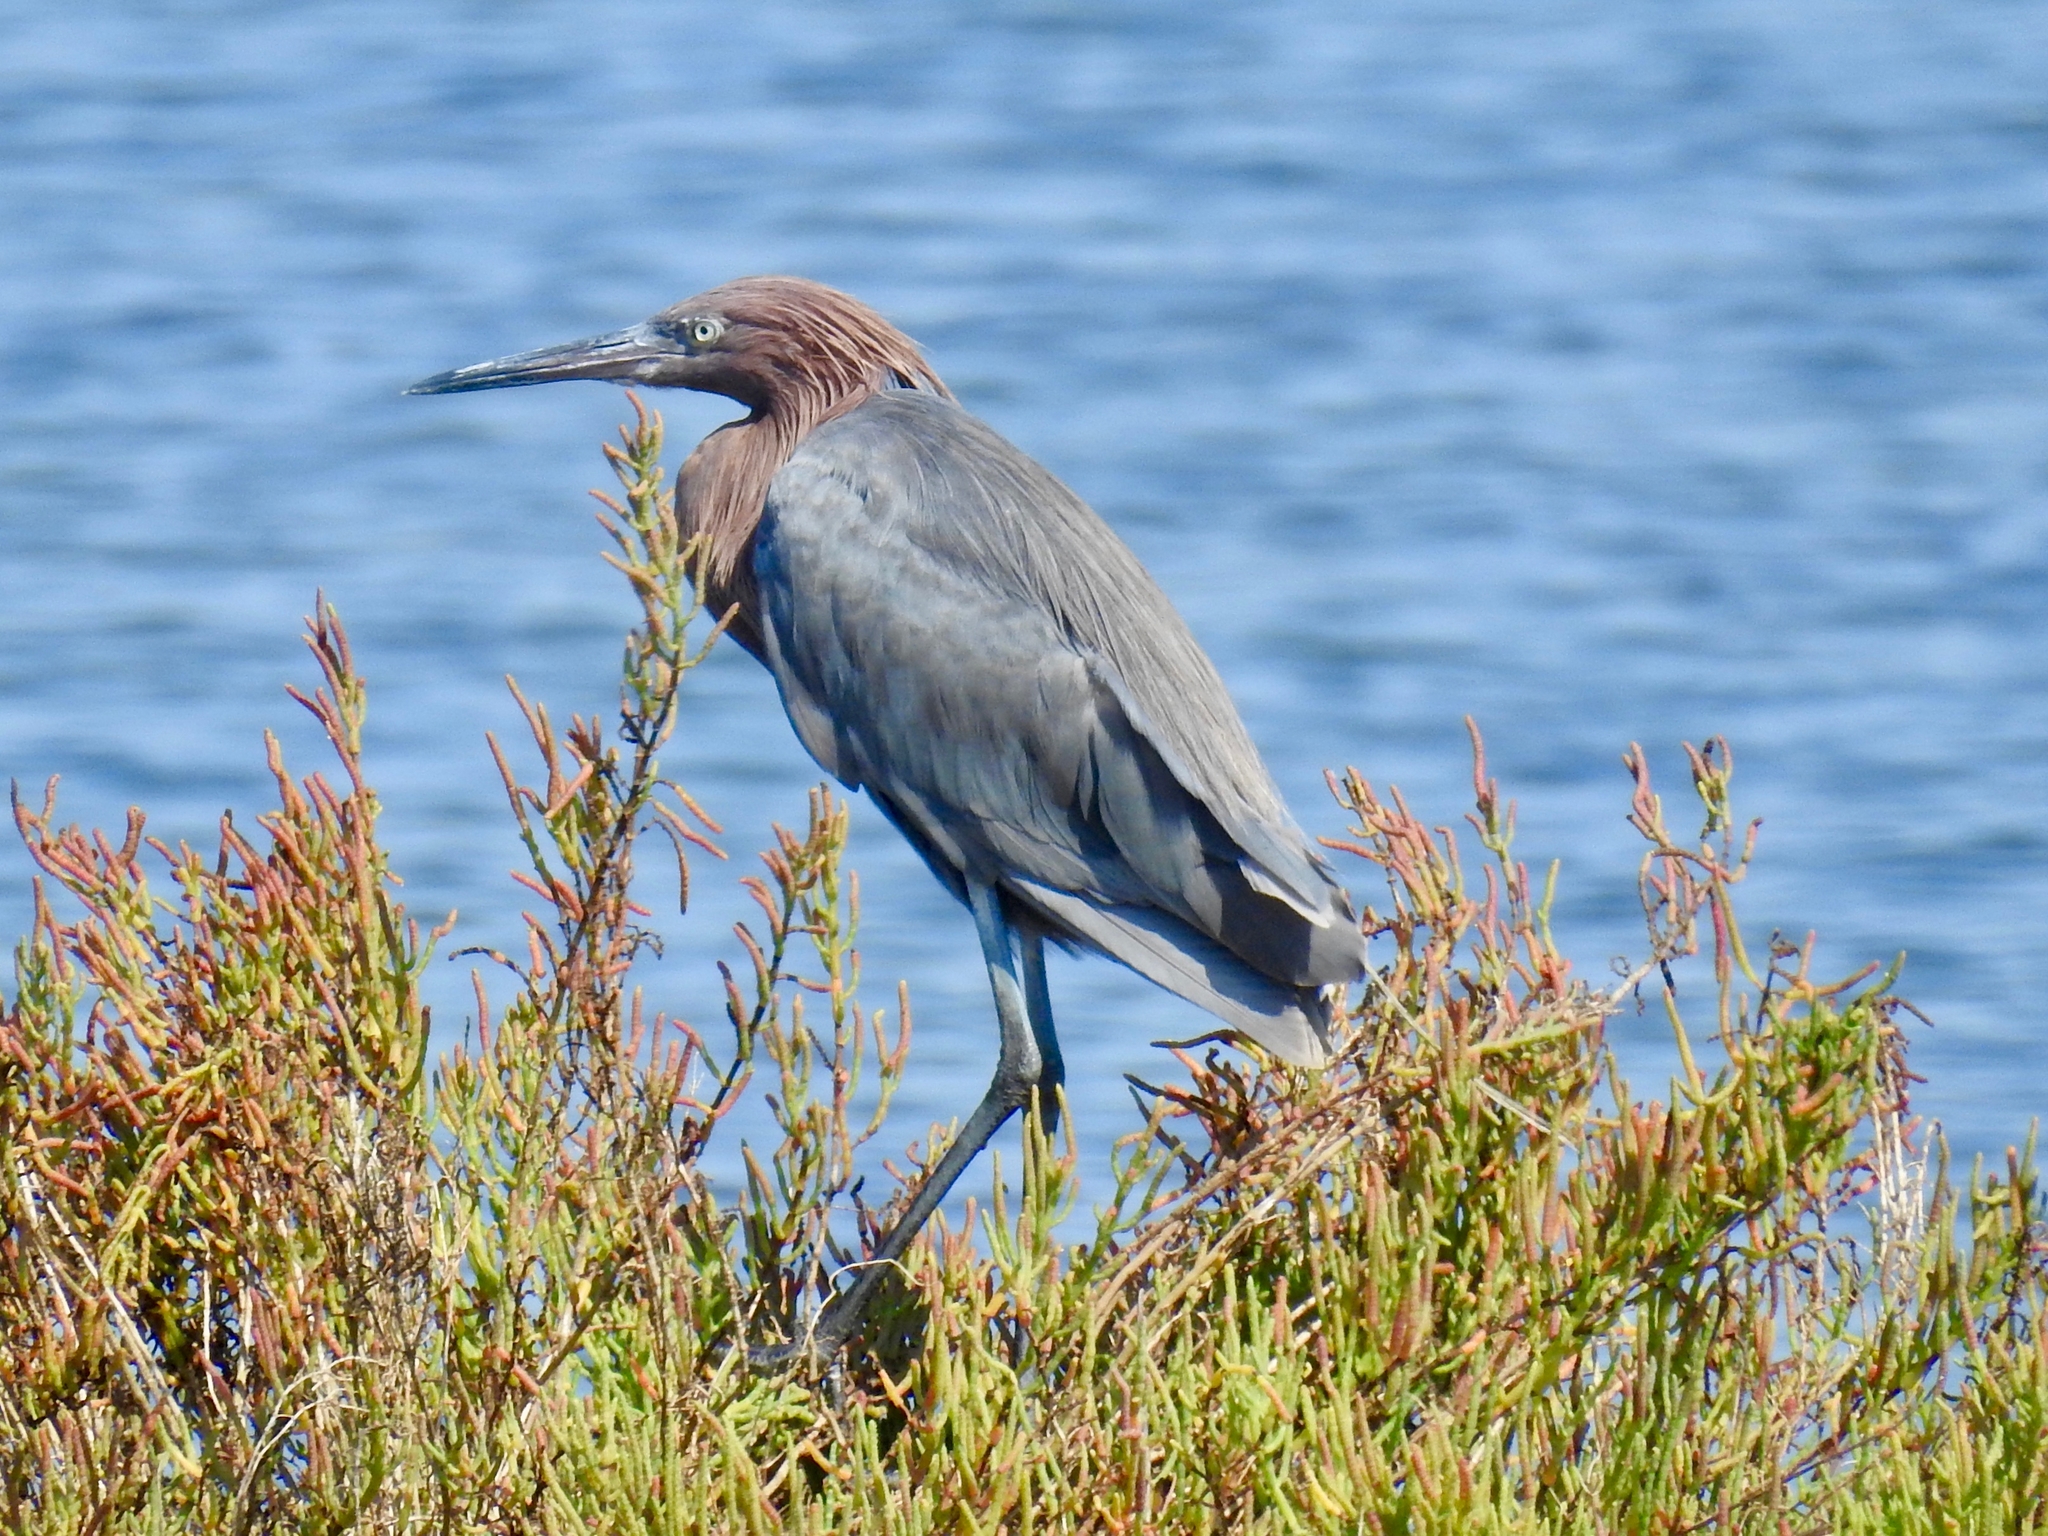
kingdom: Animalia
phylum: Chordata
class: Aves
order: Pelecaniformes
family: Ardeidae
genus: Egretta
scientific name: Egretta rufescens
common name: Reddish egret
